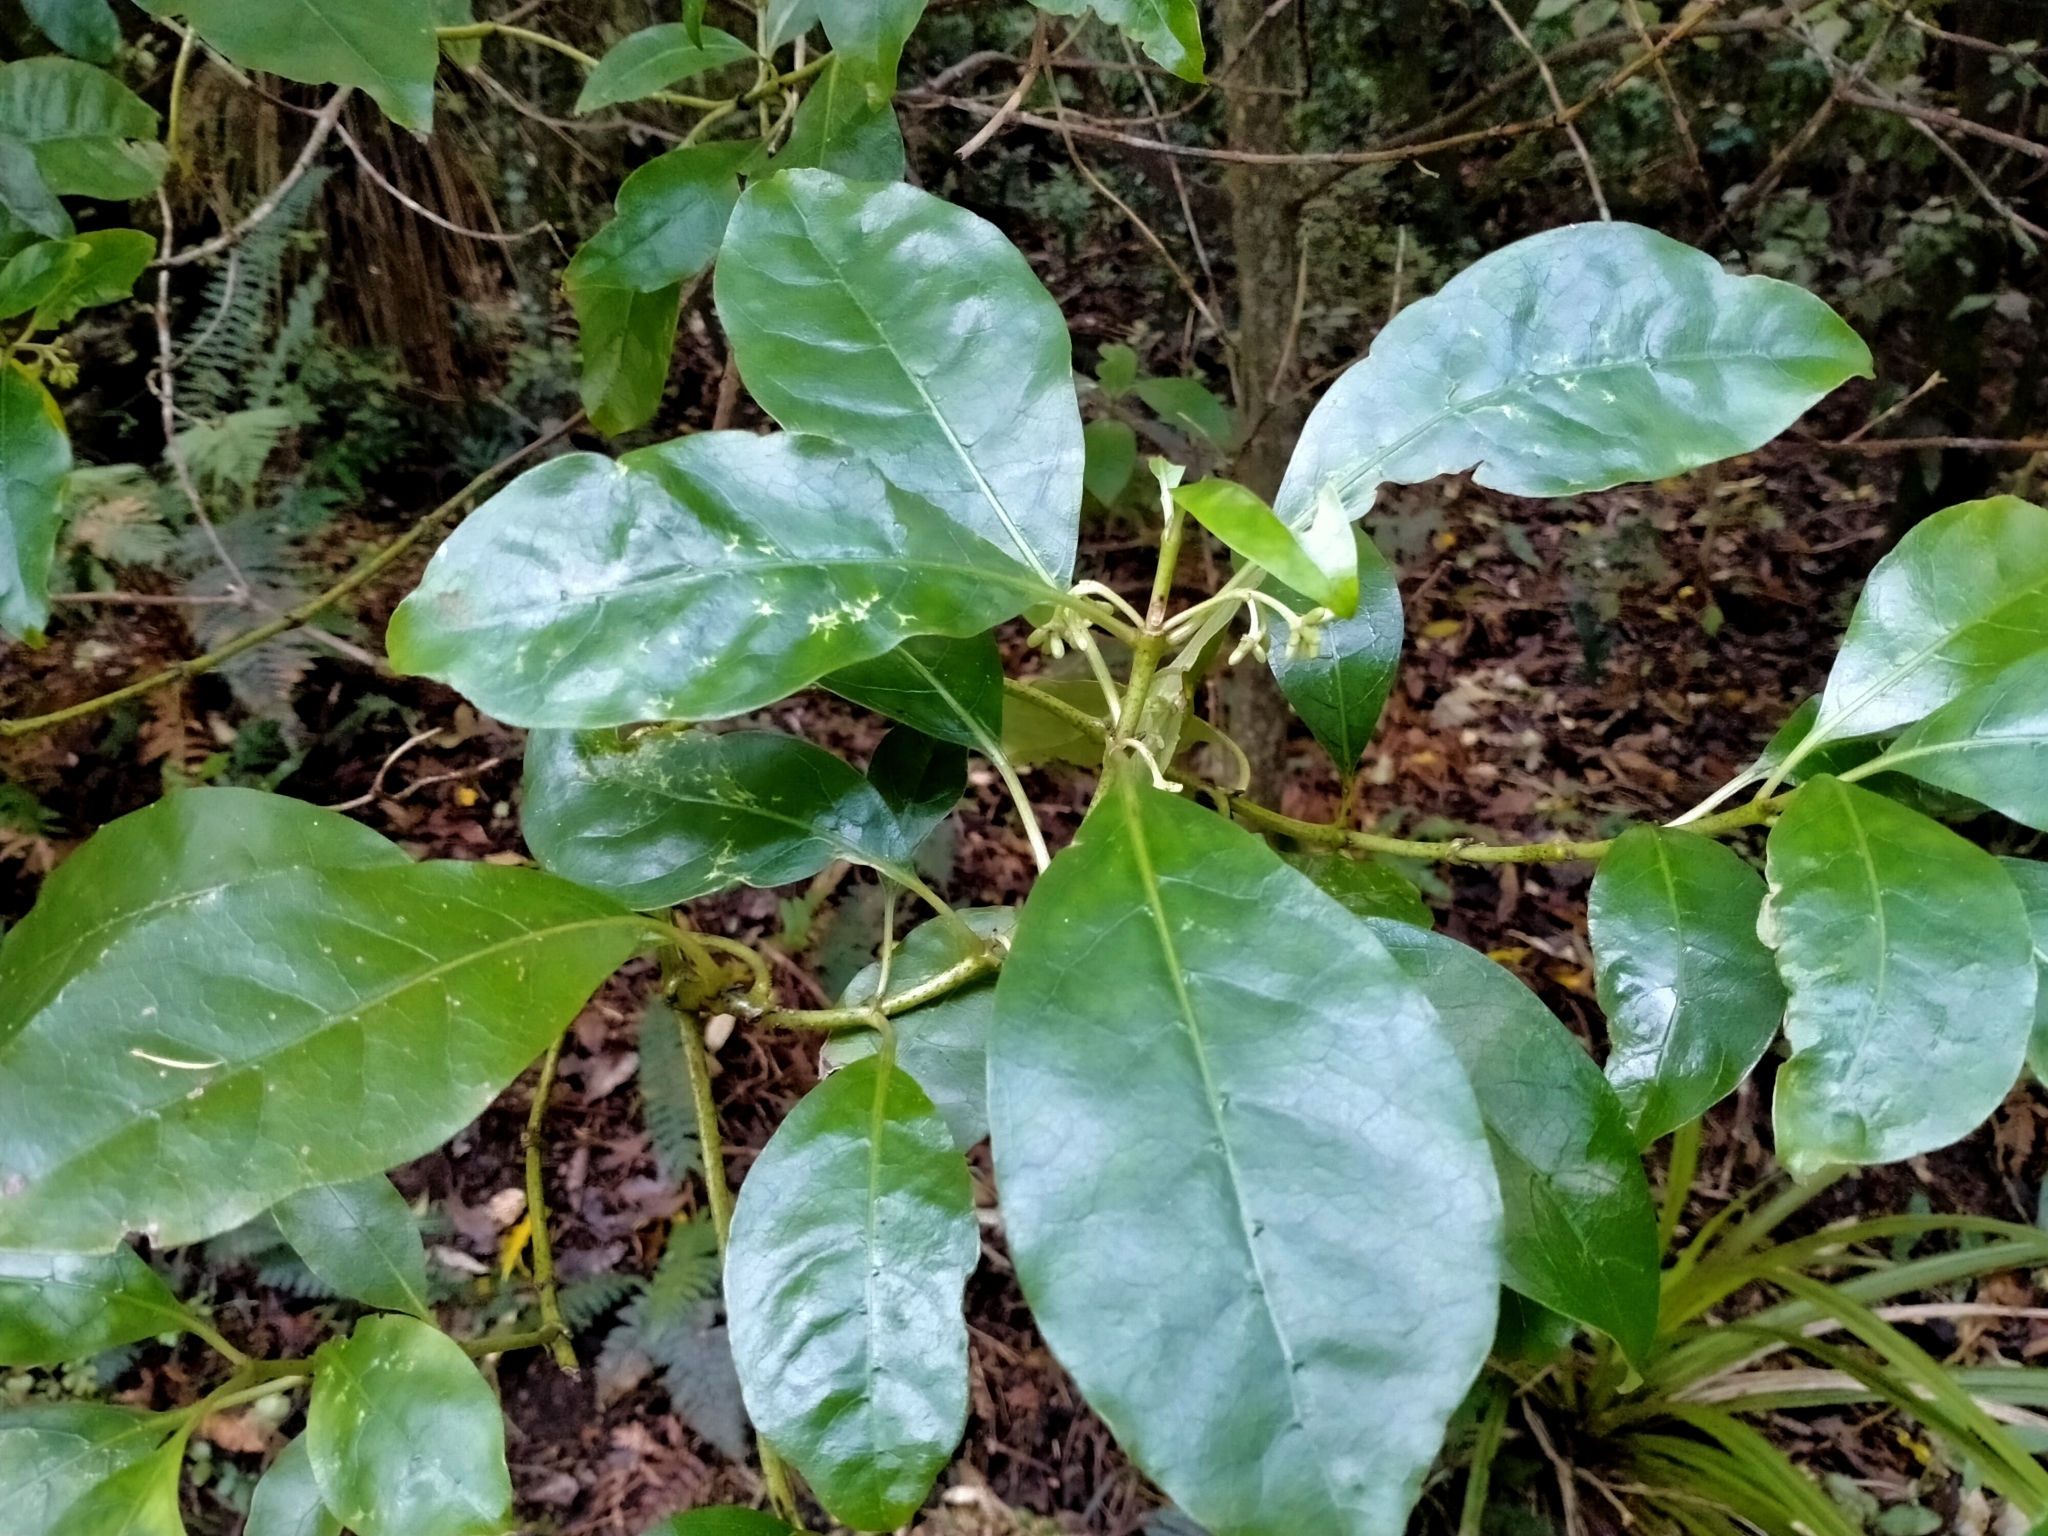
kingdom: Plantae
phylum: Tracheophyta
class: Magnoliopsida
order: Gentianales
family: Rubiaceae
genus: Coprosma
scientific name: Coprosma autumnalis
